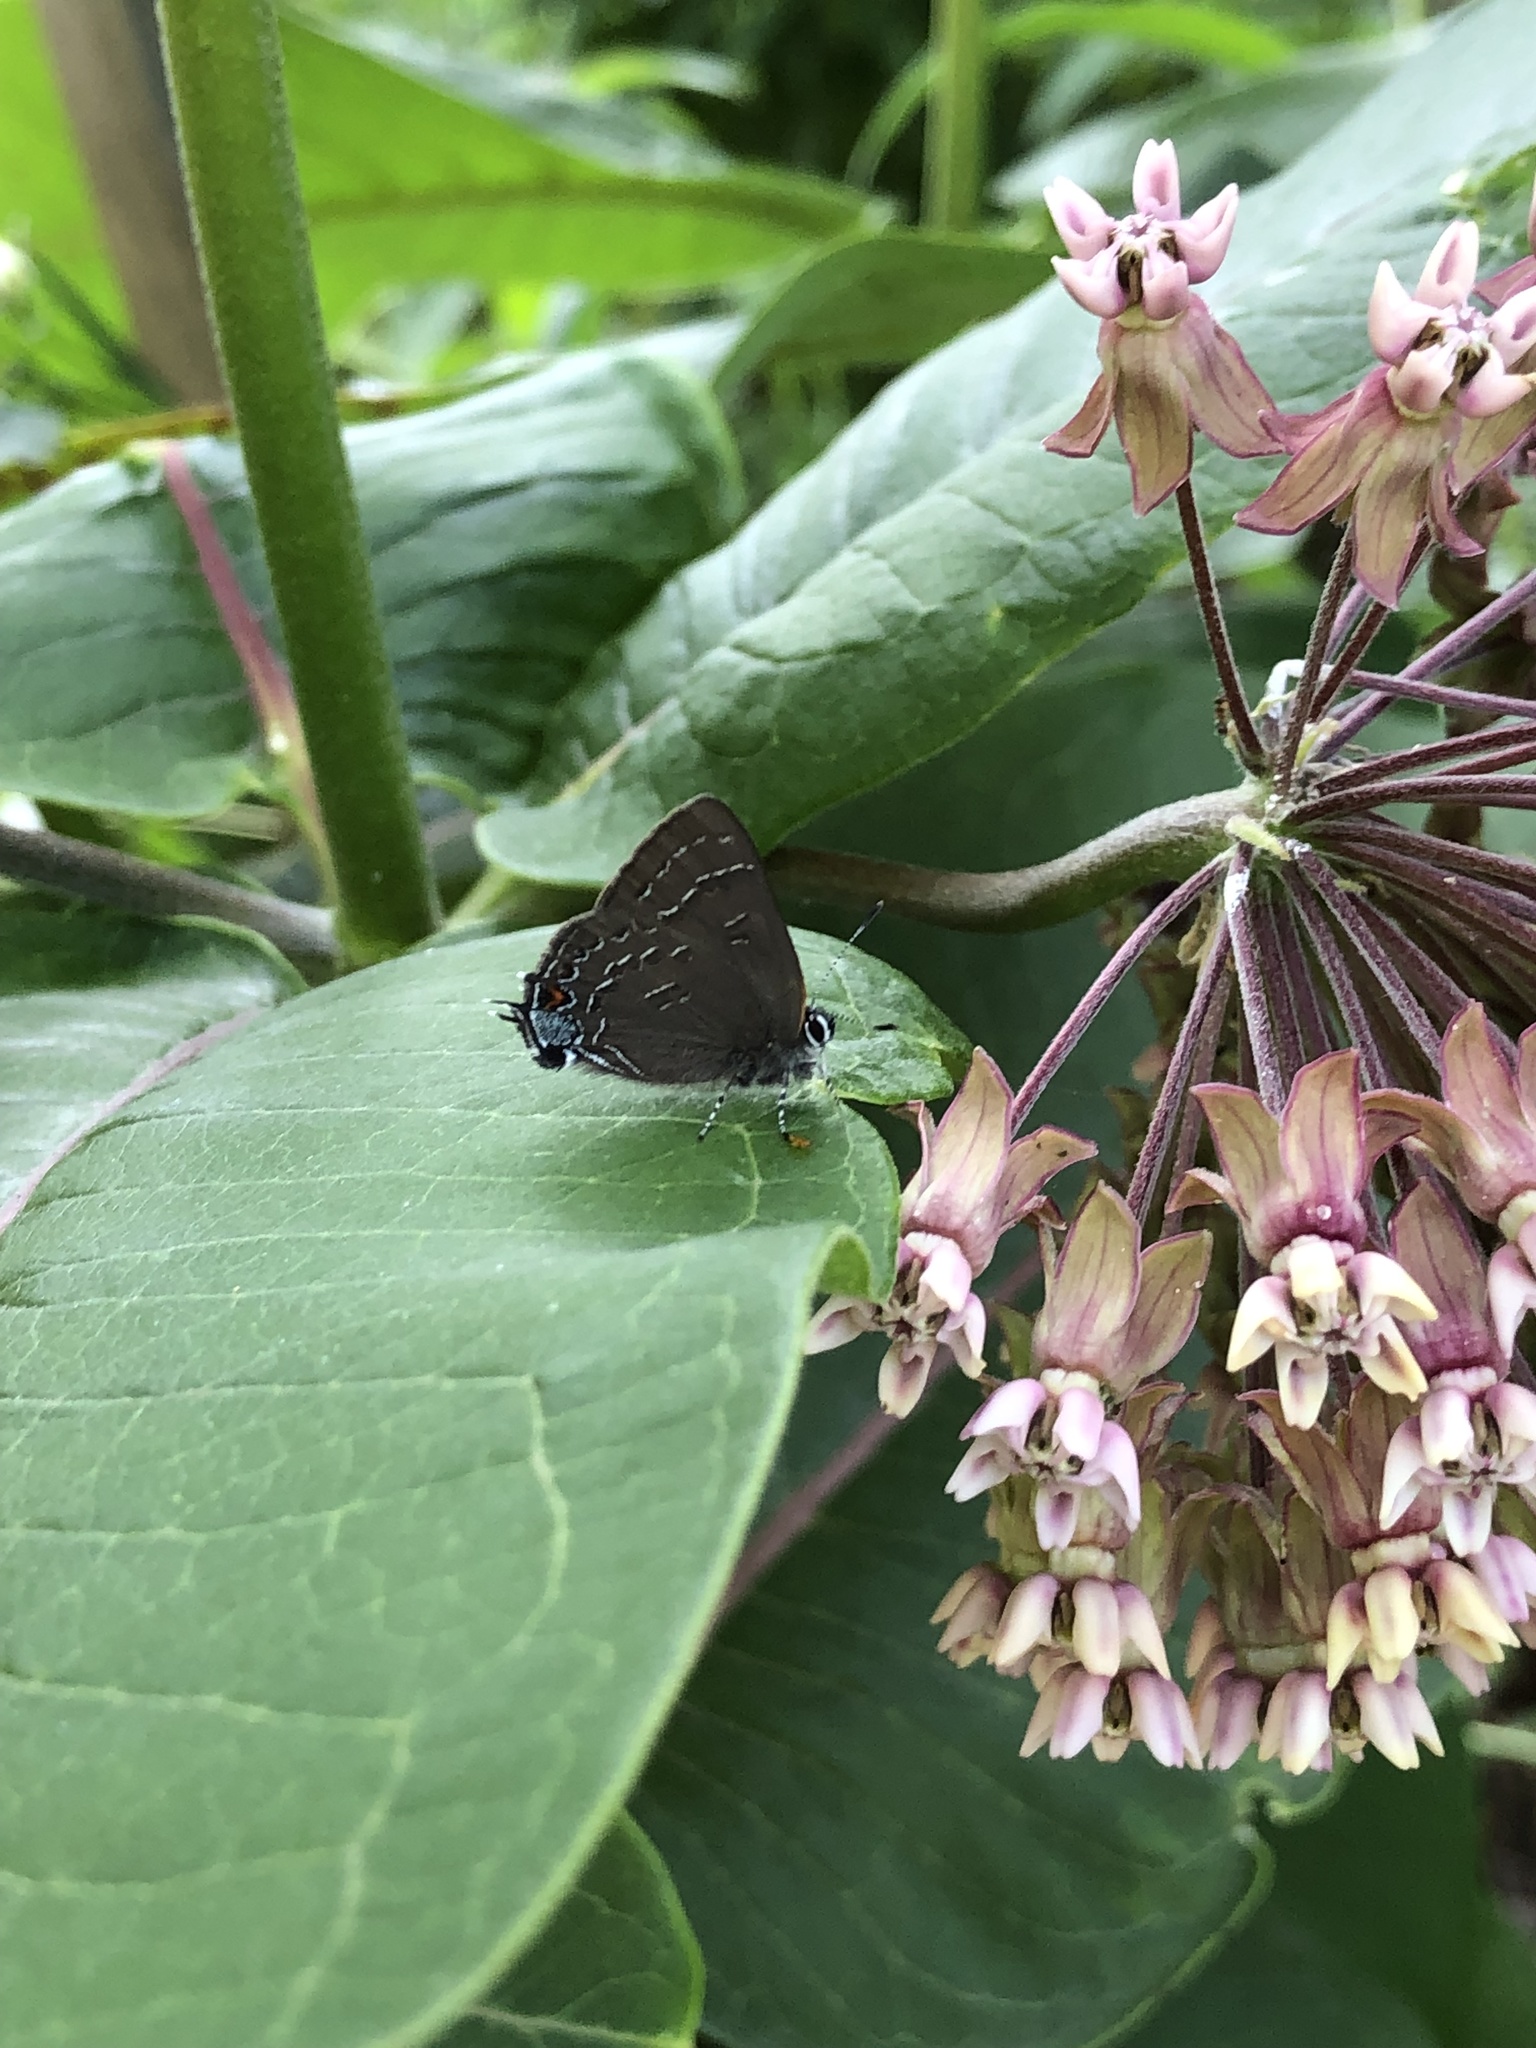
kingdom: Animalia
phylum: Arthropoda
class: Insecta
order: Lepidoptera
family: Lycaenidae
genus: Satyrium
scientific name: Satyrium calanus
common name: Banded hairstreak
